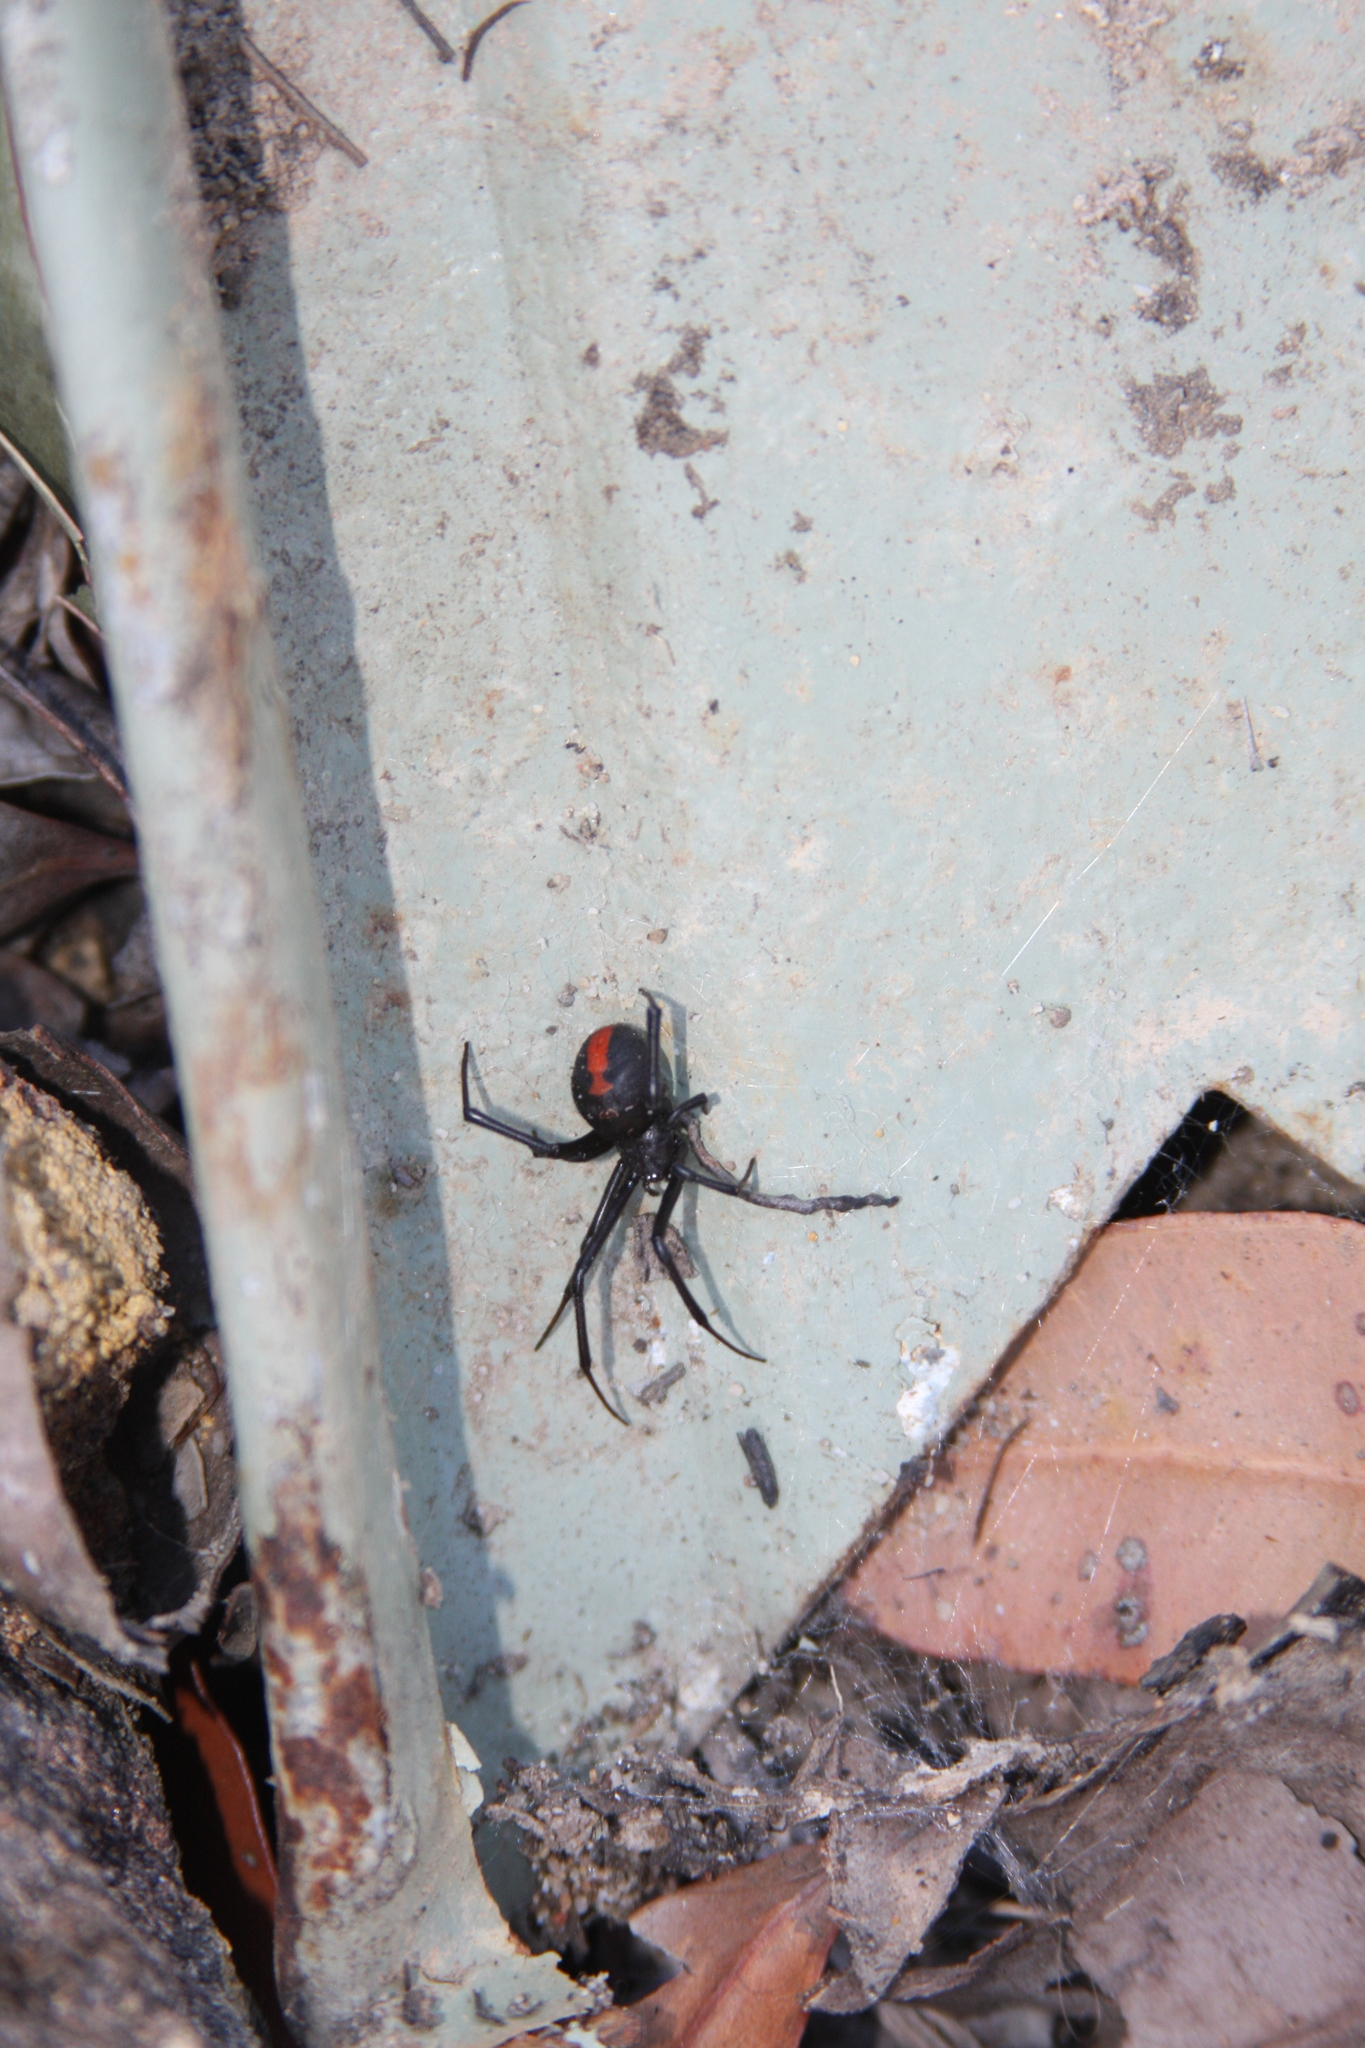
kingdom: Animalia
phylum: Arthropoda
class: Arachnida
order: Araneae
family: Theridiidae
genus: Latrodectus
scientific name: Latrodectus hasselti
